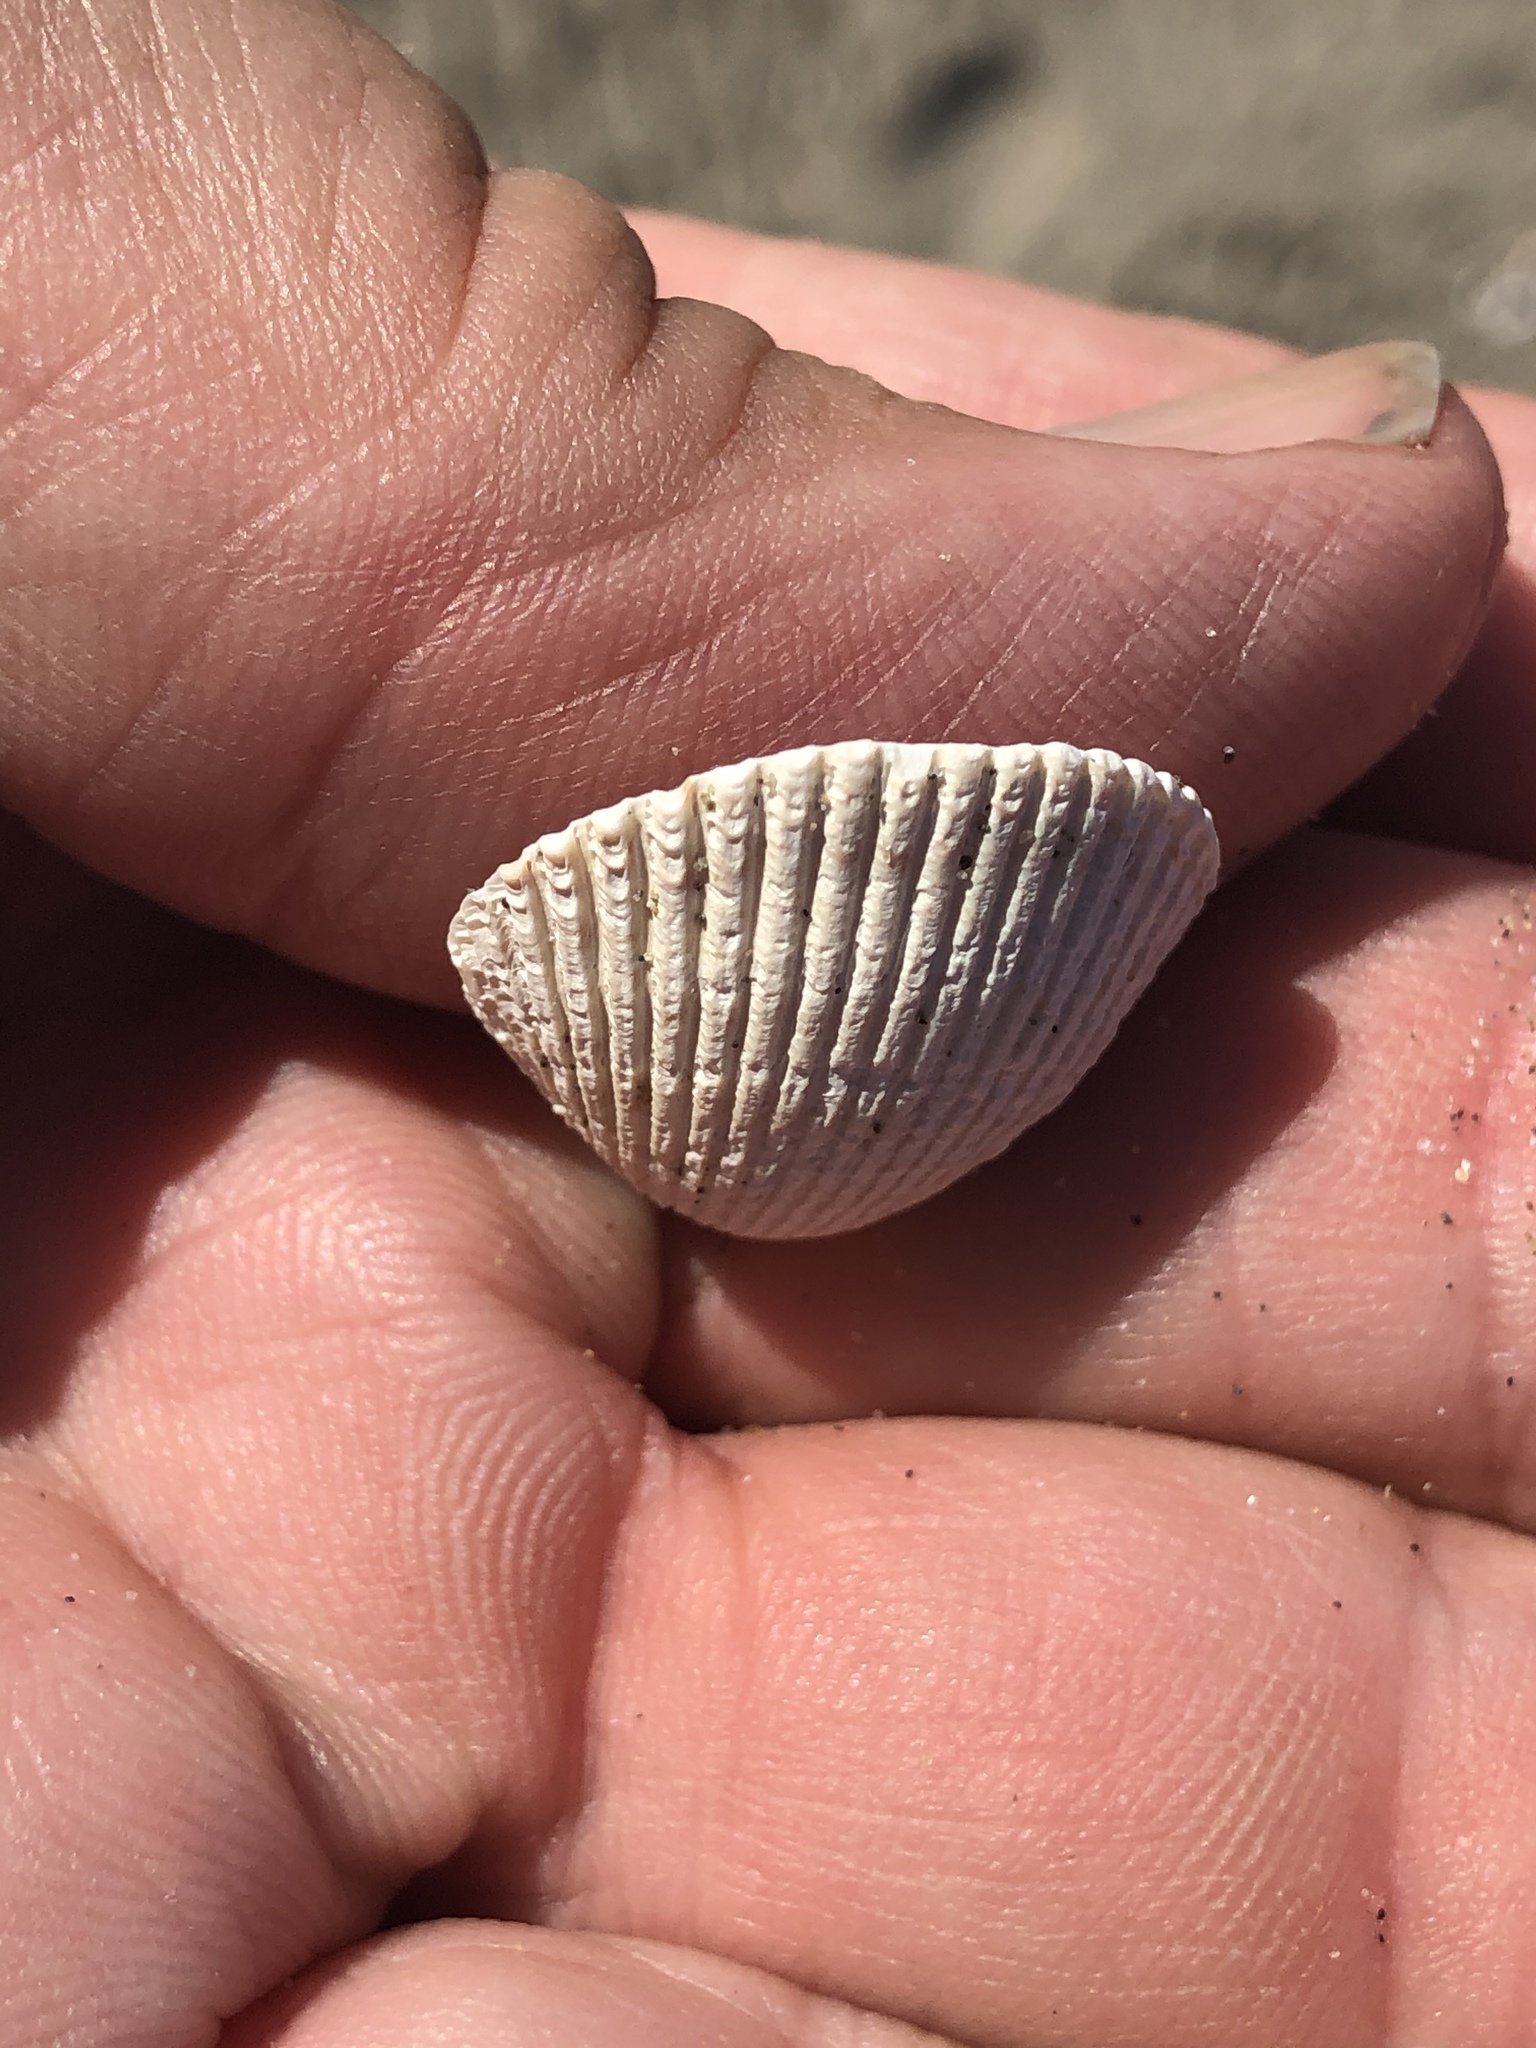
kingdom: Animalia
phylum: Mollusca
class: Bivalvia
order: Cardiida
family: Cardiidae
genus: Clinocardium
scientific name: Clinocardium nuttallii
